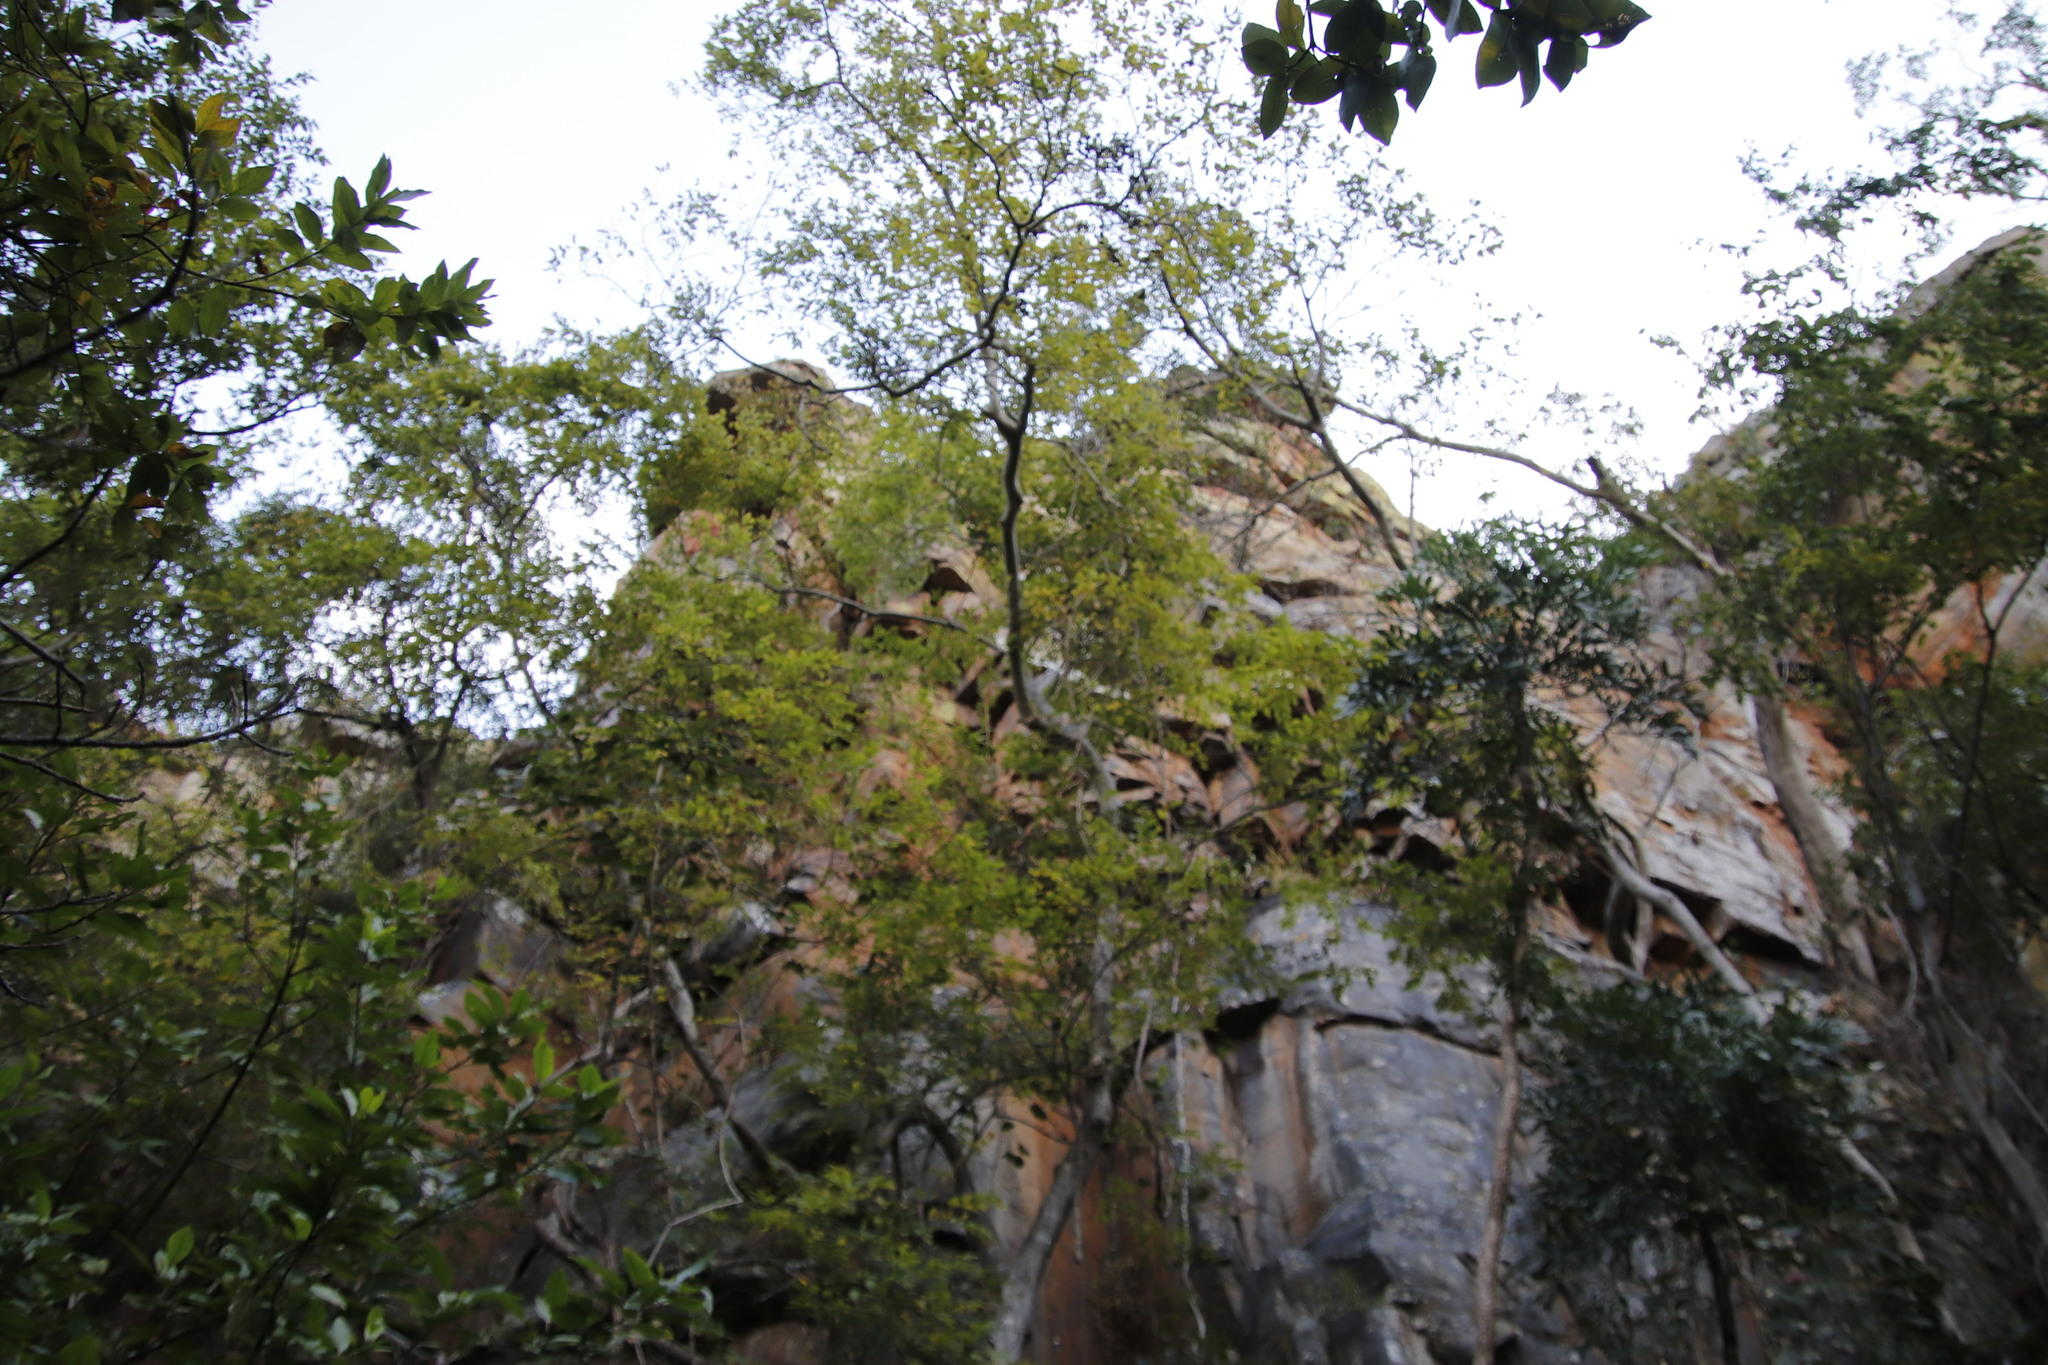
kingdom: Plantae
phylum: Tracheophyta
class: Magnoliopsida
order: Rosales
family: Cannabaceae
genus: Celtis
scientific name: Celtis africana
